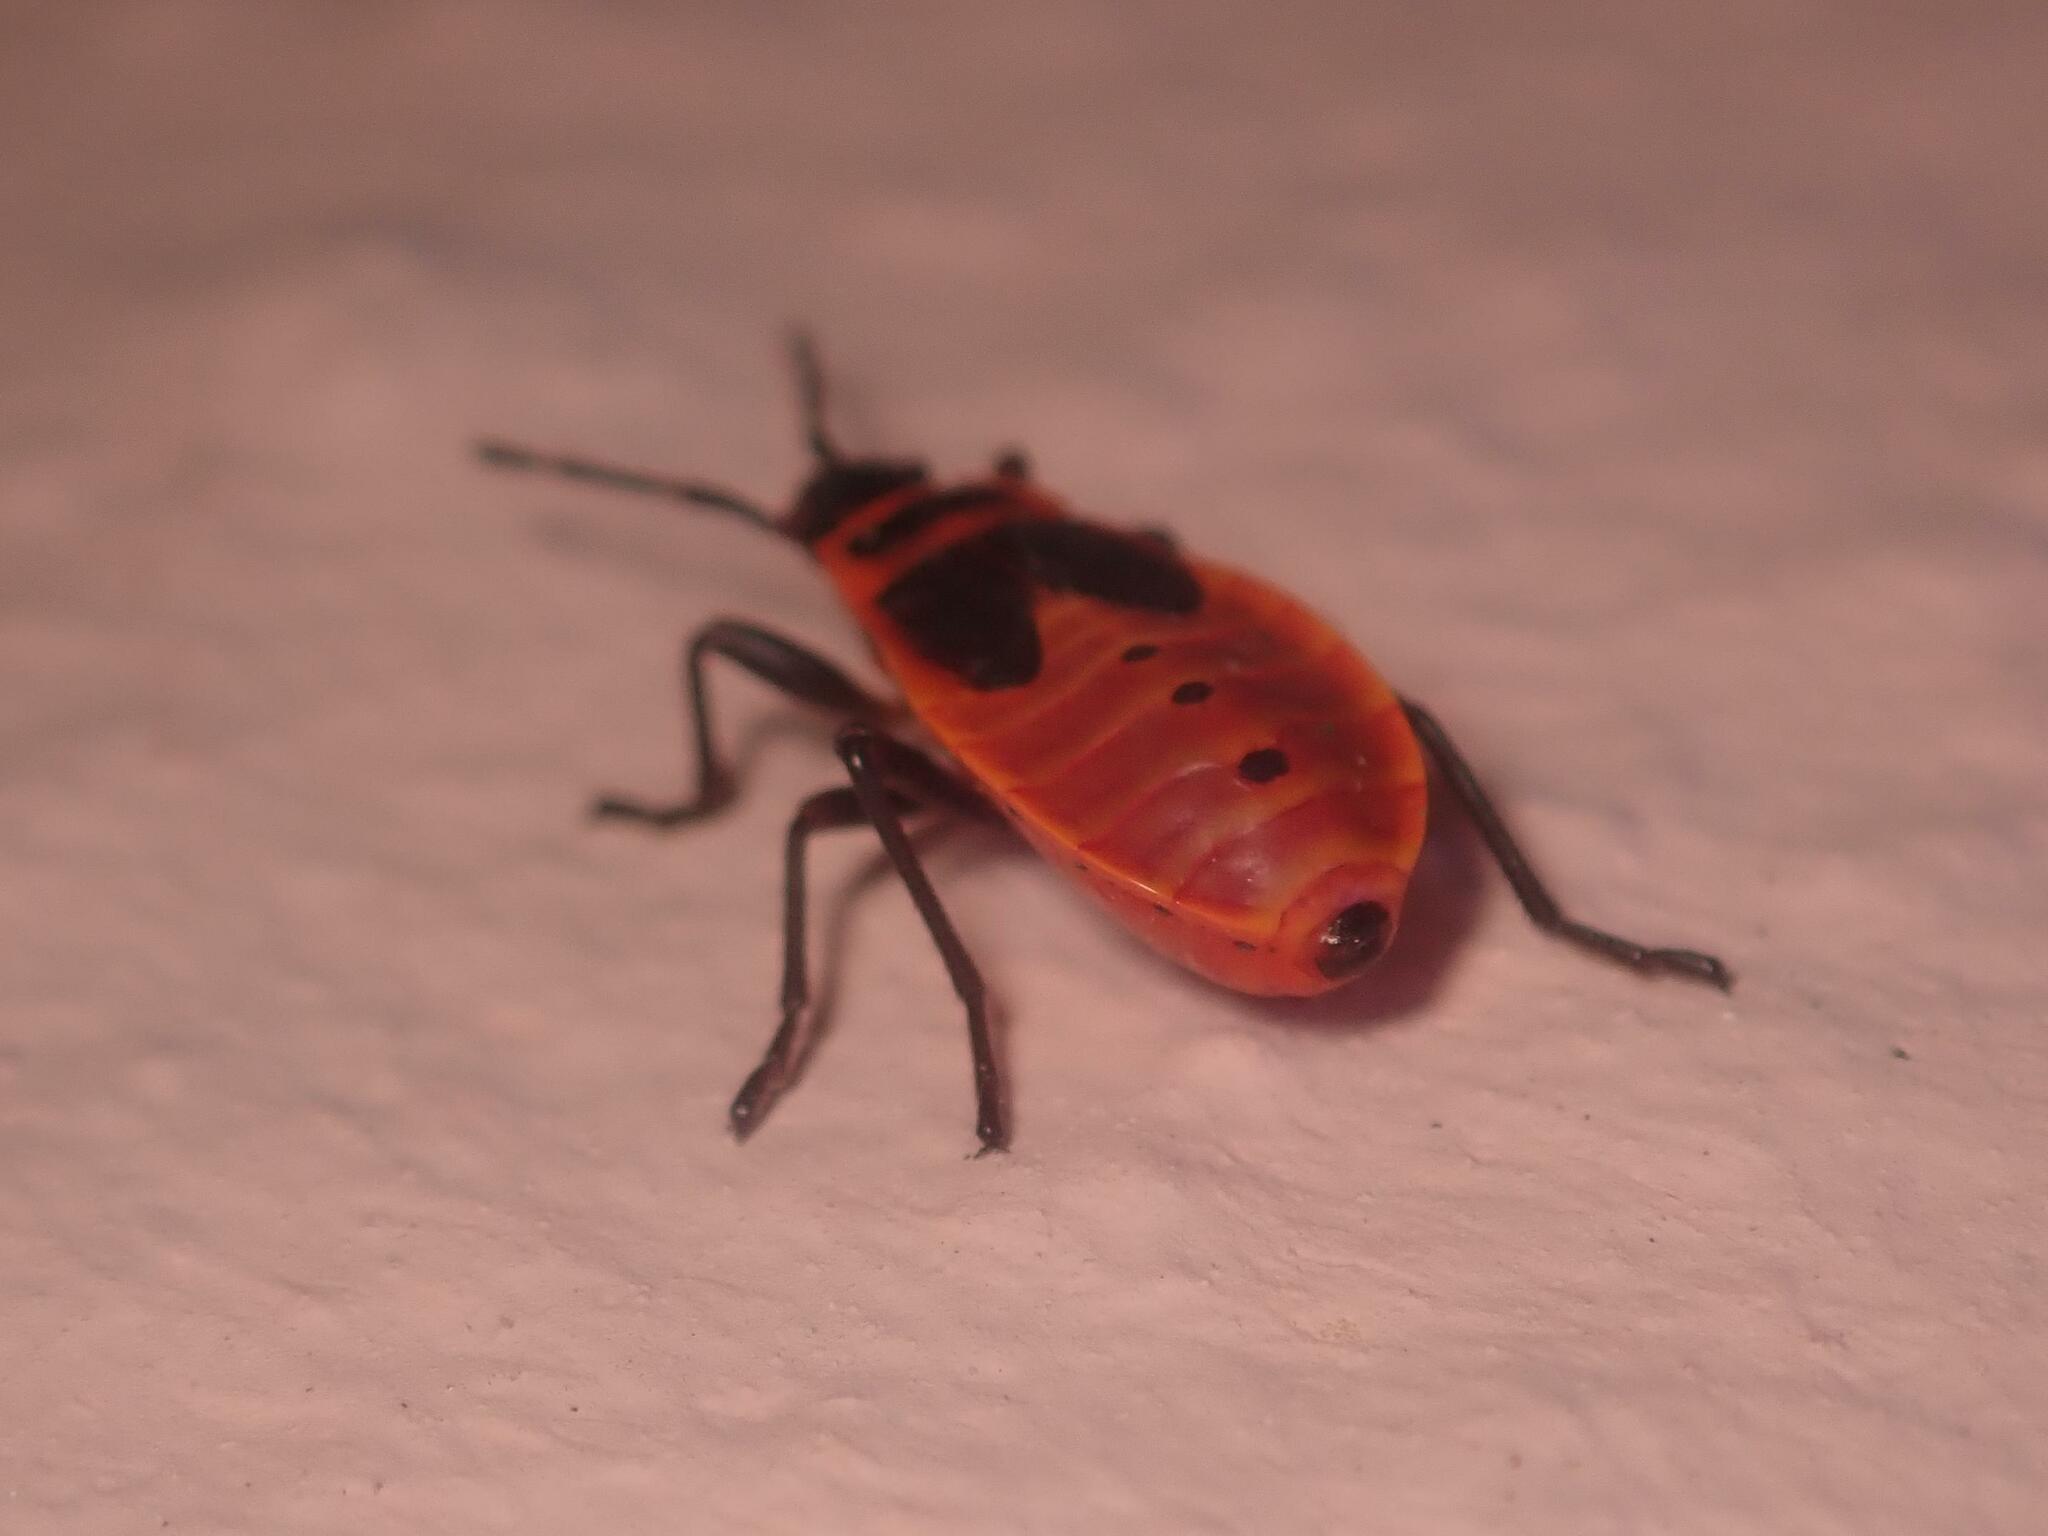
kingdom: Animalia
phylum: Arthropoda
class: Insecta
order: Hemiptera
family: Pyrrhocoridae
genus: Pyrrhocoris
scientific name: Pyrrhocoris apterus
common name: Firebug
